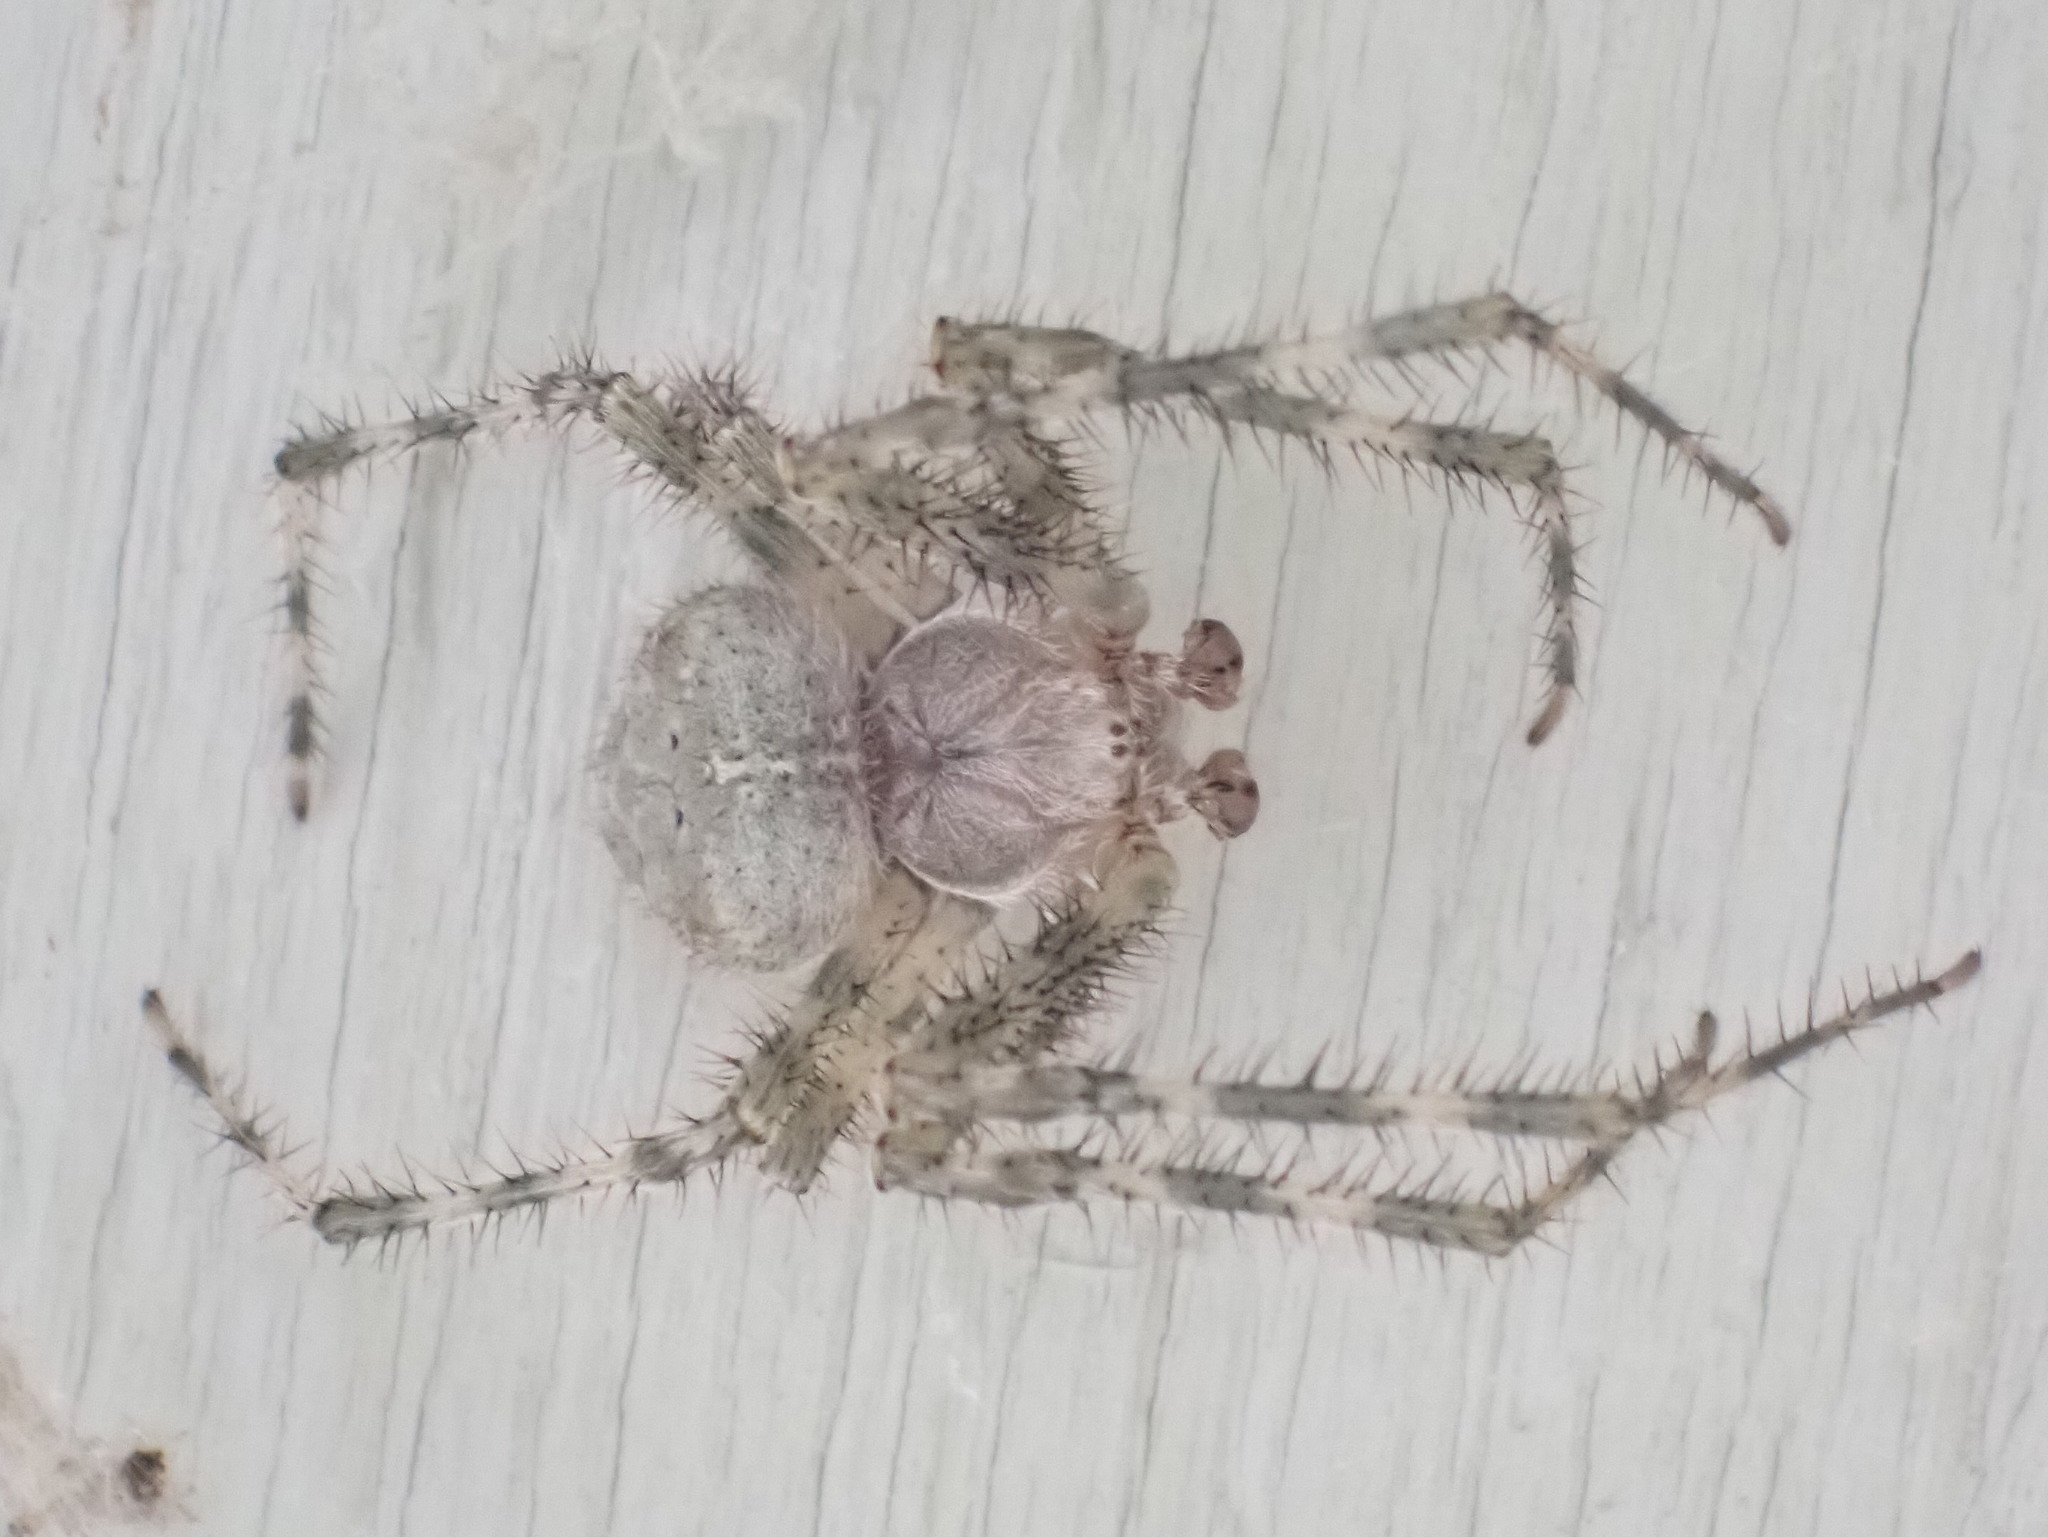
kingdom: Animalia
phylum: Arthropoda
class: Arachnida
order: Araneae
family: Araneidae
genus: Araneus
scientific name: Araneus cavaticus
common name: Barn orbweaver
